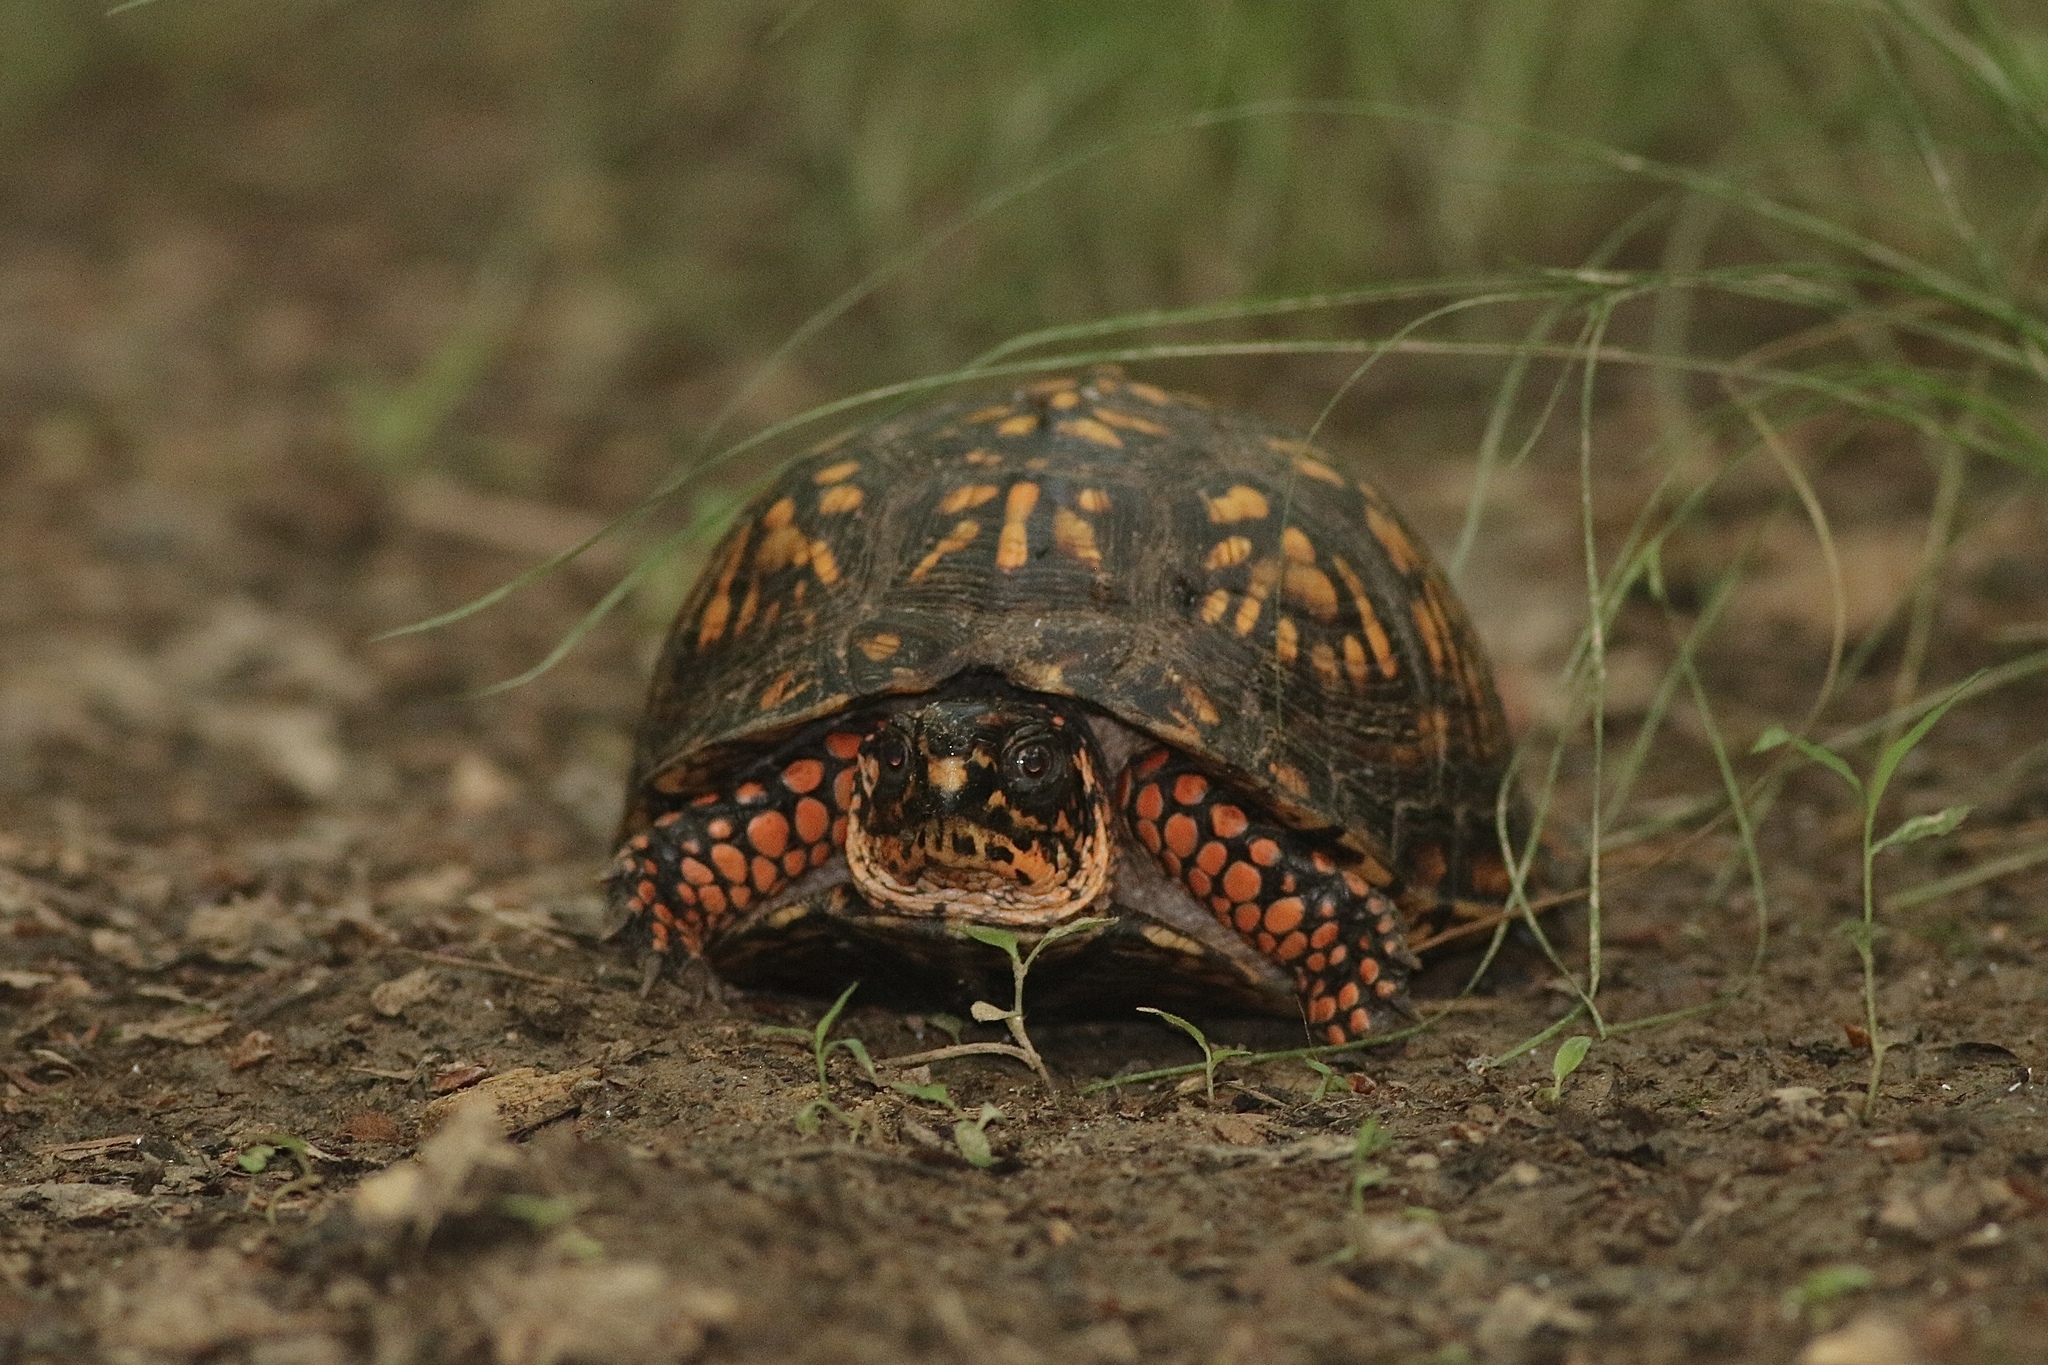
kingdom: Animalia
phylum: Chordata
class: Testudines
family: Emydidae
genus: Terrapene
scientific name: Terrapene carolina
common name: Common box turtle
